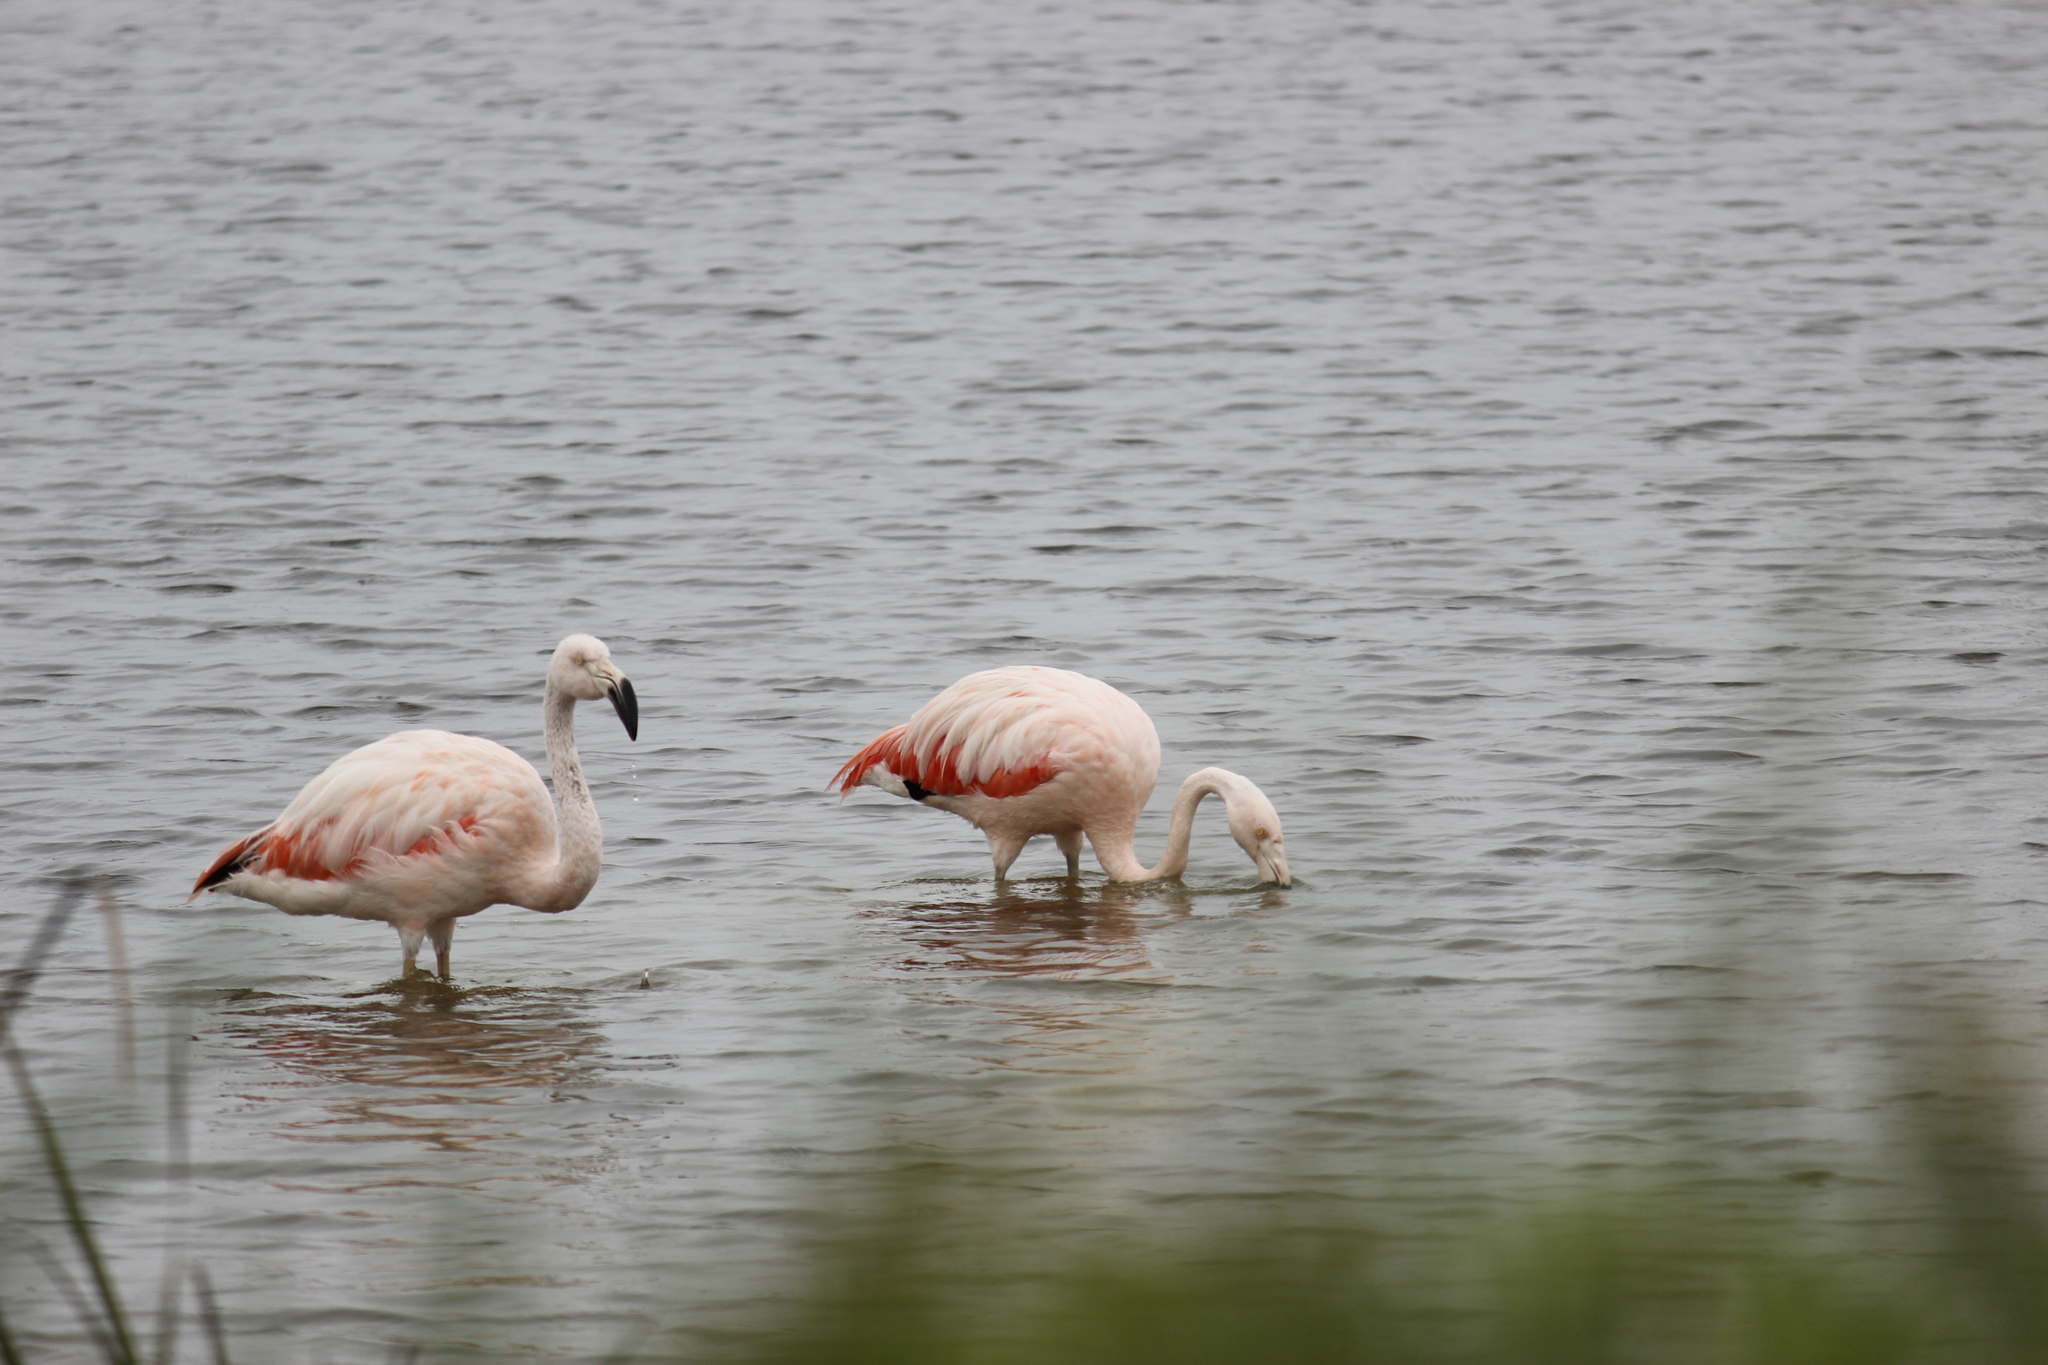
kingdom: Animalia
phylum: Chordata
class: Aves
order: Phoenicopteriformes
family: Phoenicopteridae
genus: Phoenicopterus
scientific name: Phoenicopterus chilensis
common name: Chilean flamingo
